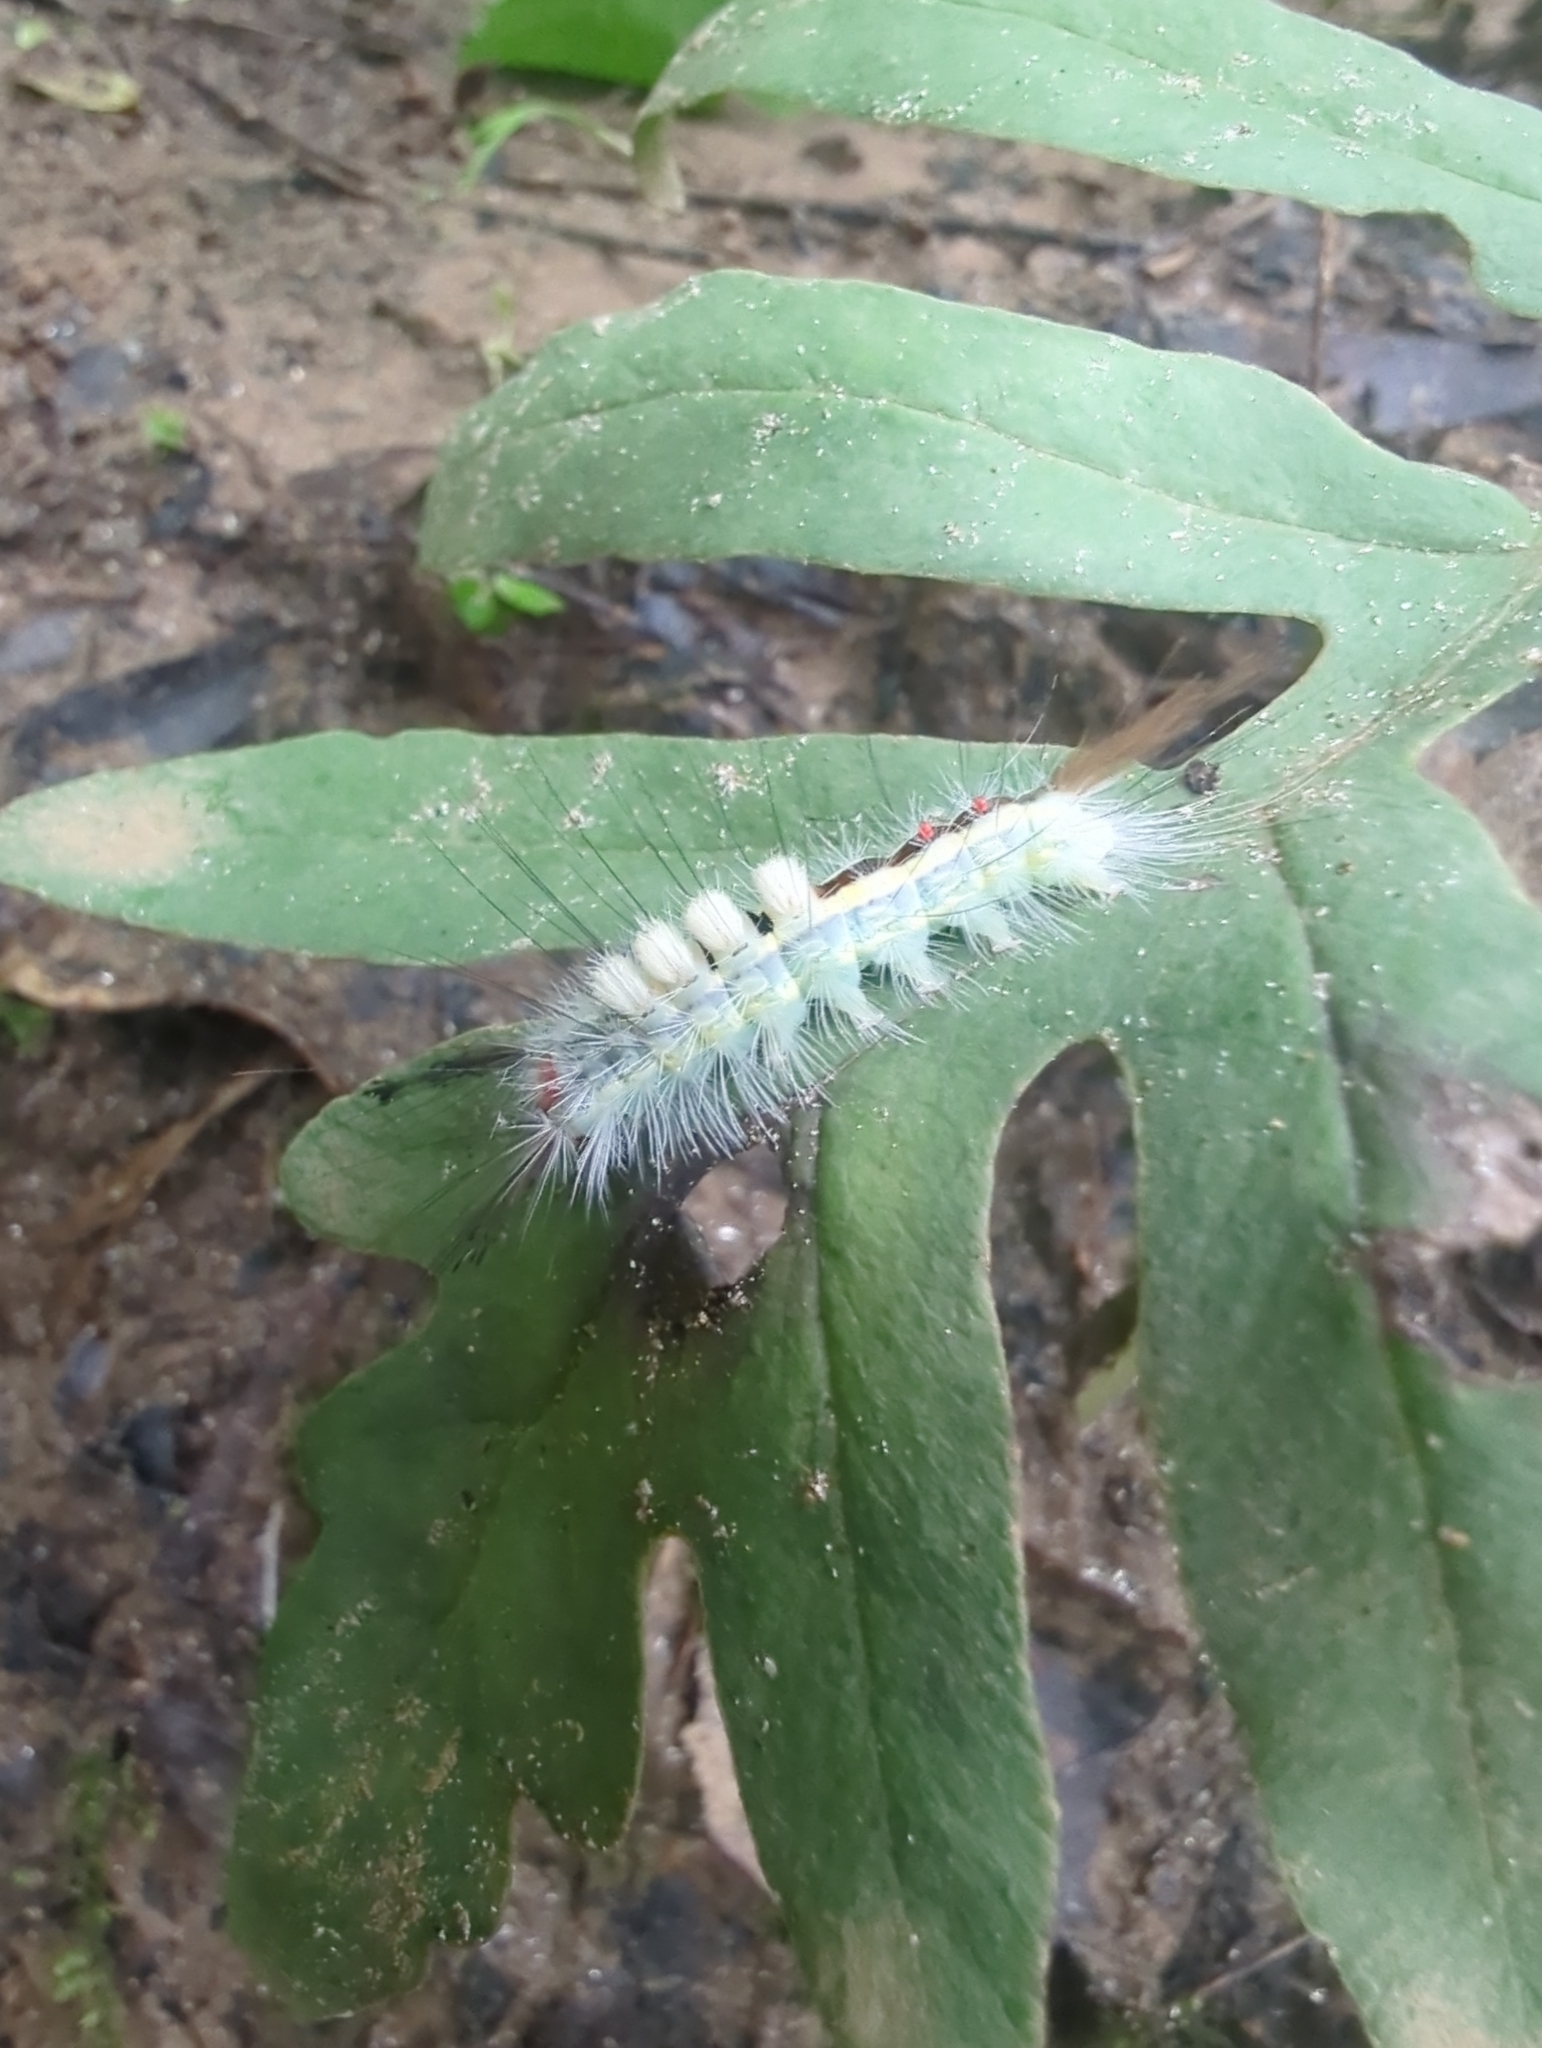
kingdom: Animalia
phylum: Arthropoda
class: Insecta
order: Lepidoptera
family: Erebidae
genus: Orgyia
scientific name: Orgyia leucostigma
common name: White-marked tussock moth
